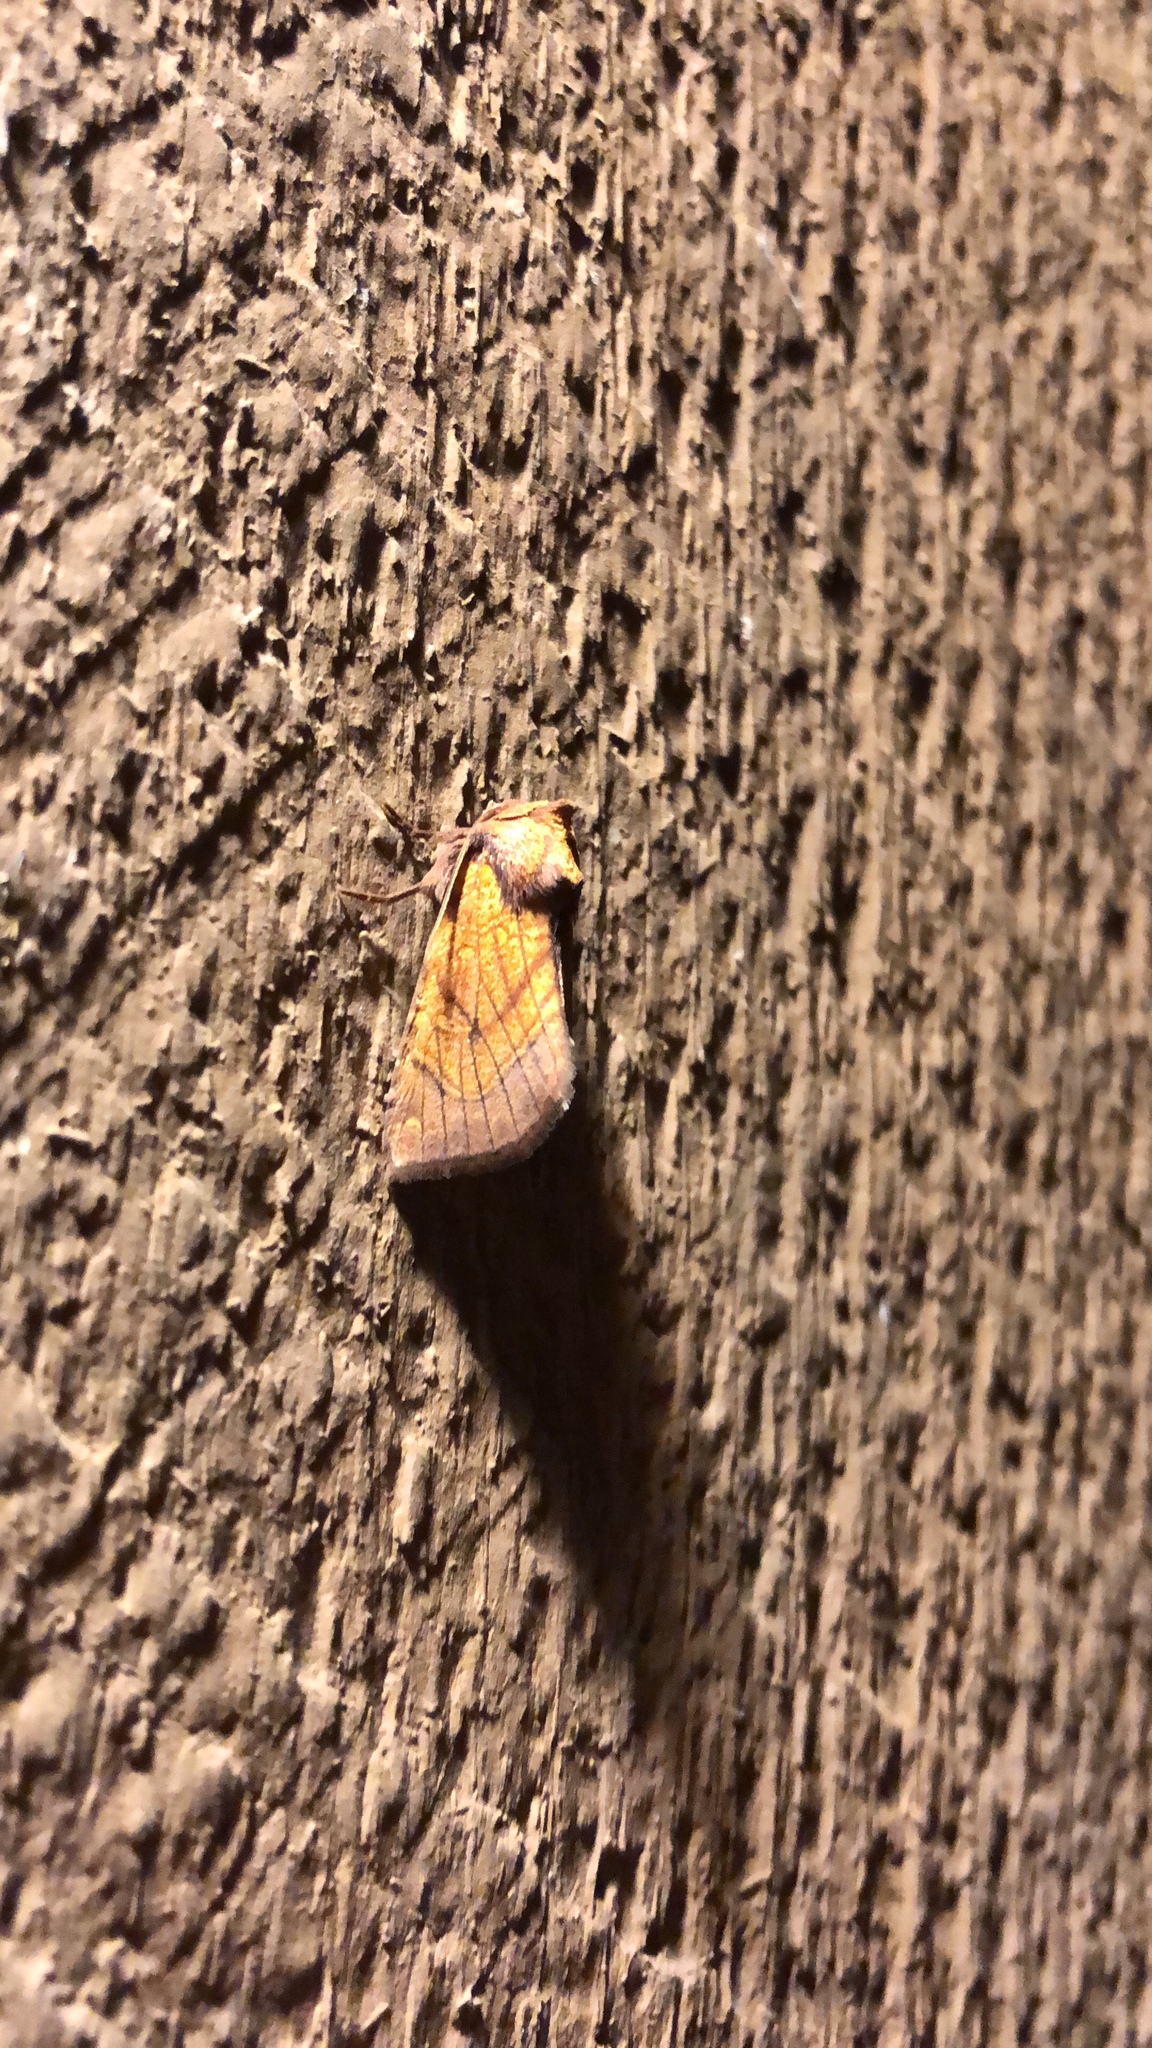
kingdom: Animalia
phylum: Arthropoda
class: Insecta
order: Lepidoptera
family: Noctuidae
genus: Papaipema
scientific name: Papaipema inquaesita
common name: Sensitive fern borer moth
